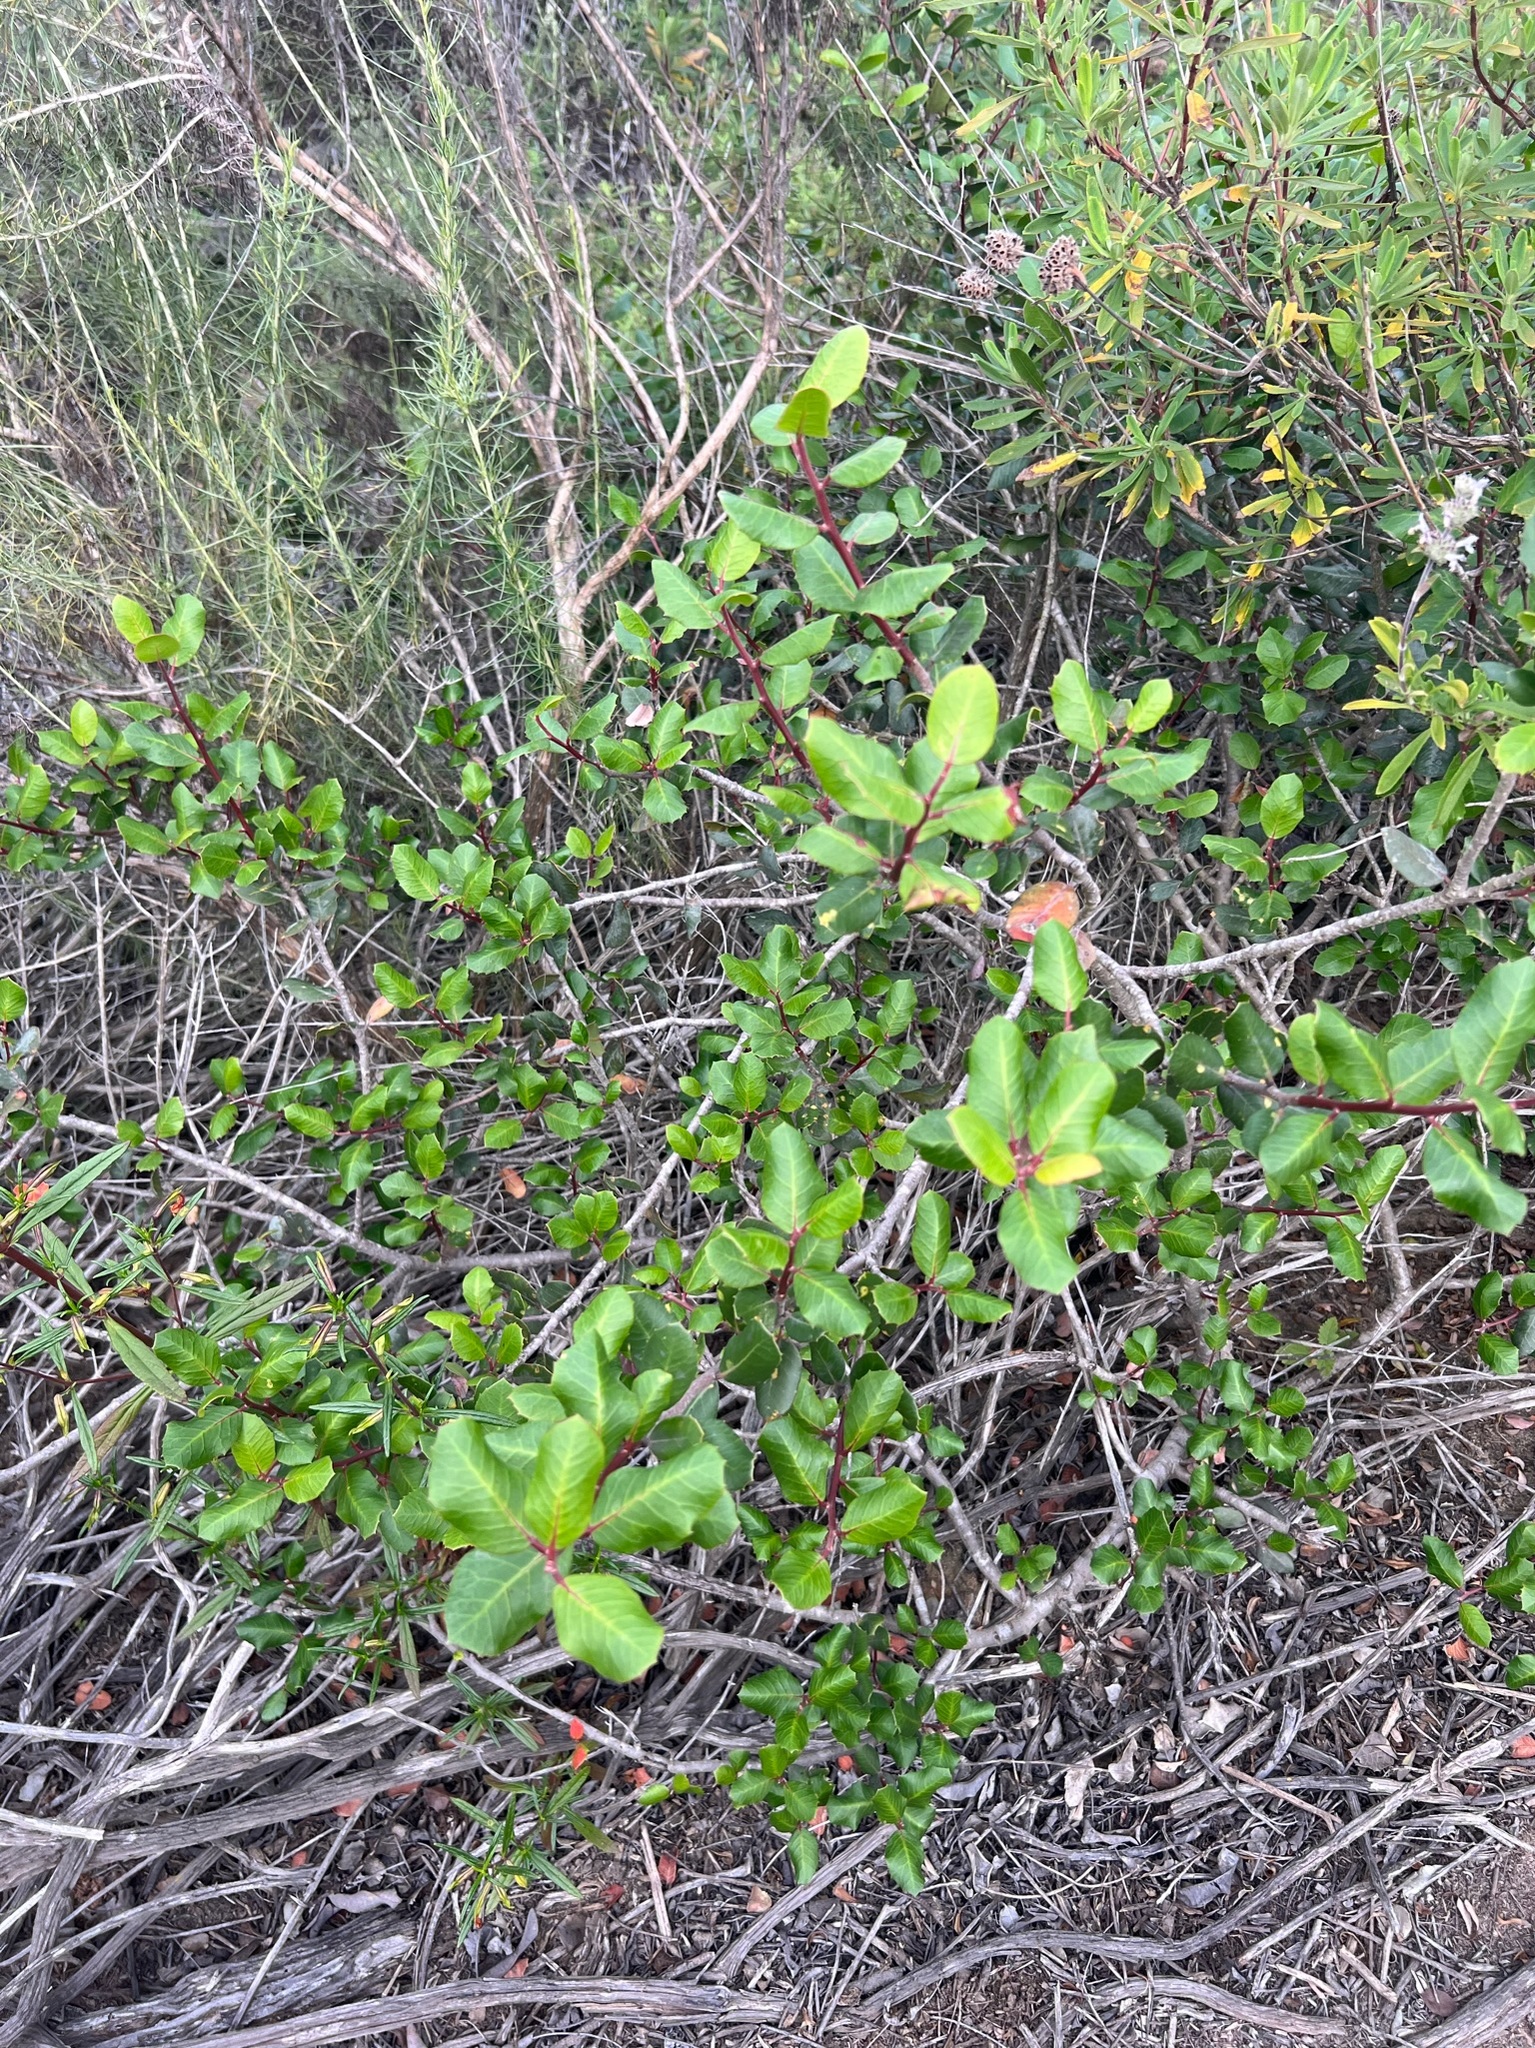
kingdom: Plantae
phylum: Tracheophyta
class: Magnoliopsida
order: Sapindales
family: Anacardiaceae
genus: Rhus
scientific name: Rhus integrifolia
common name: Lemonade sumac
